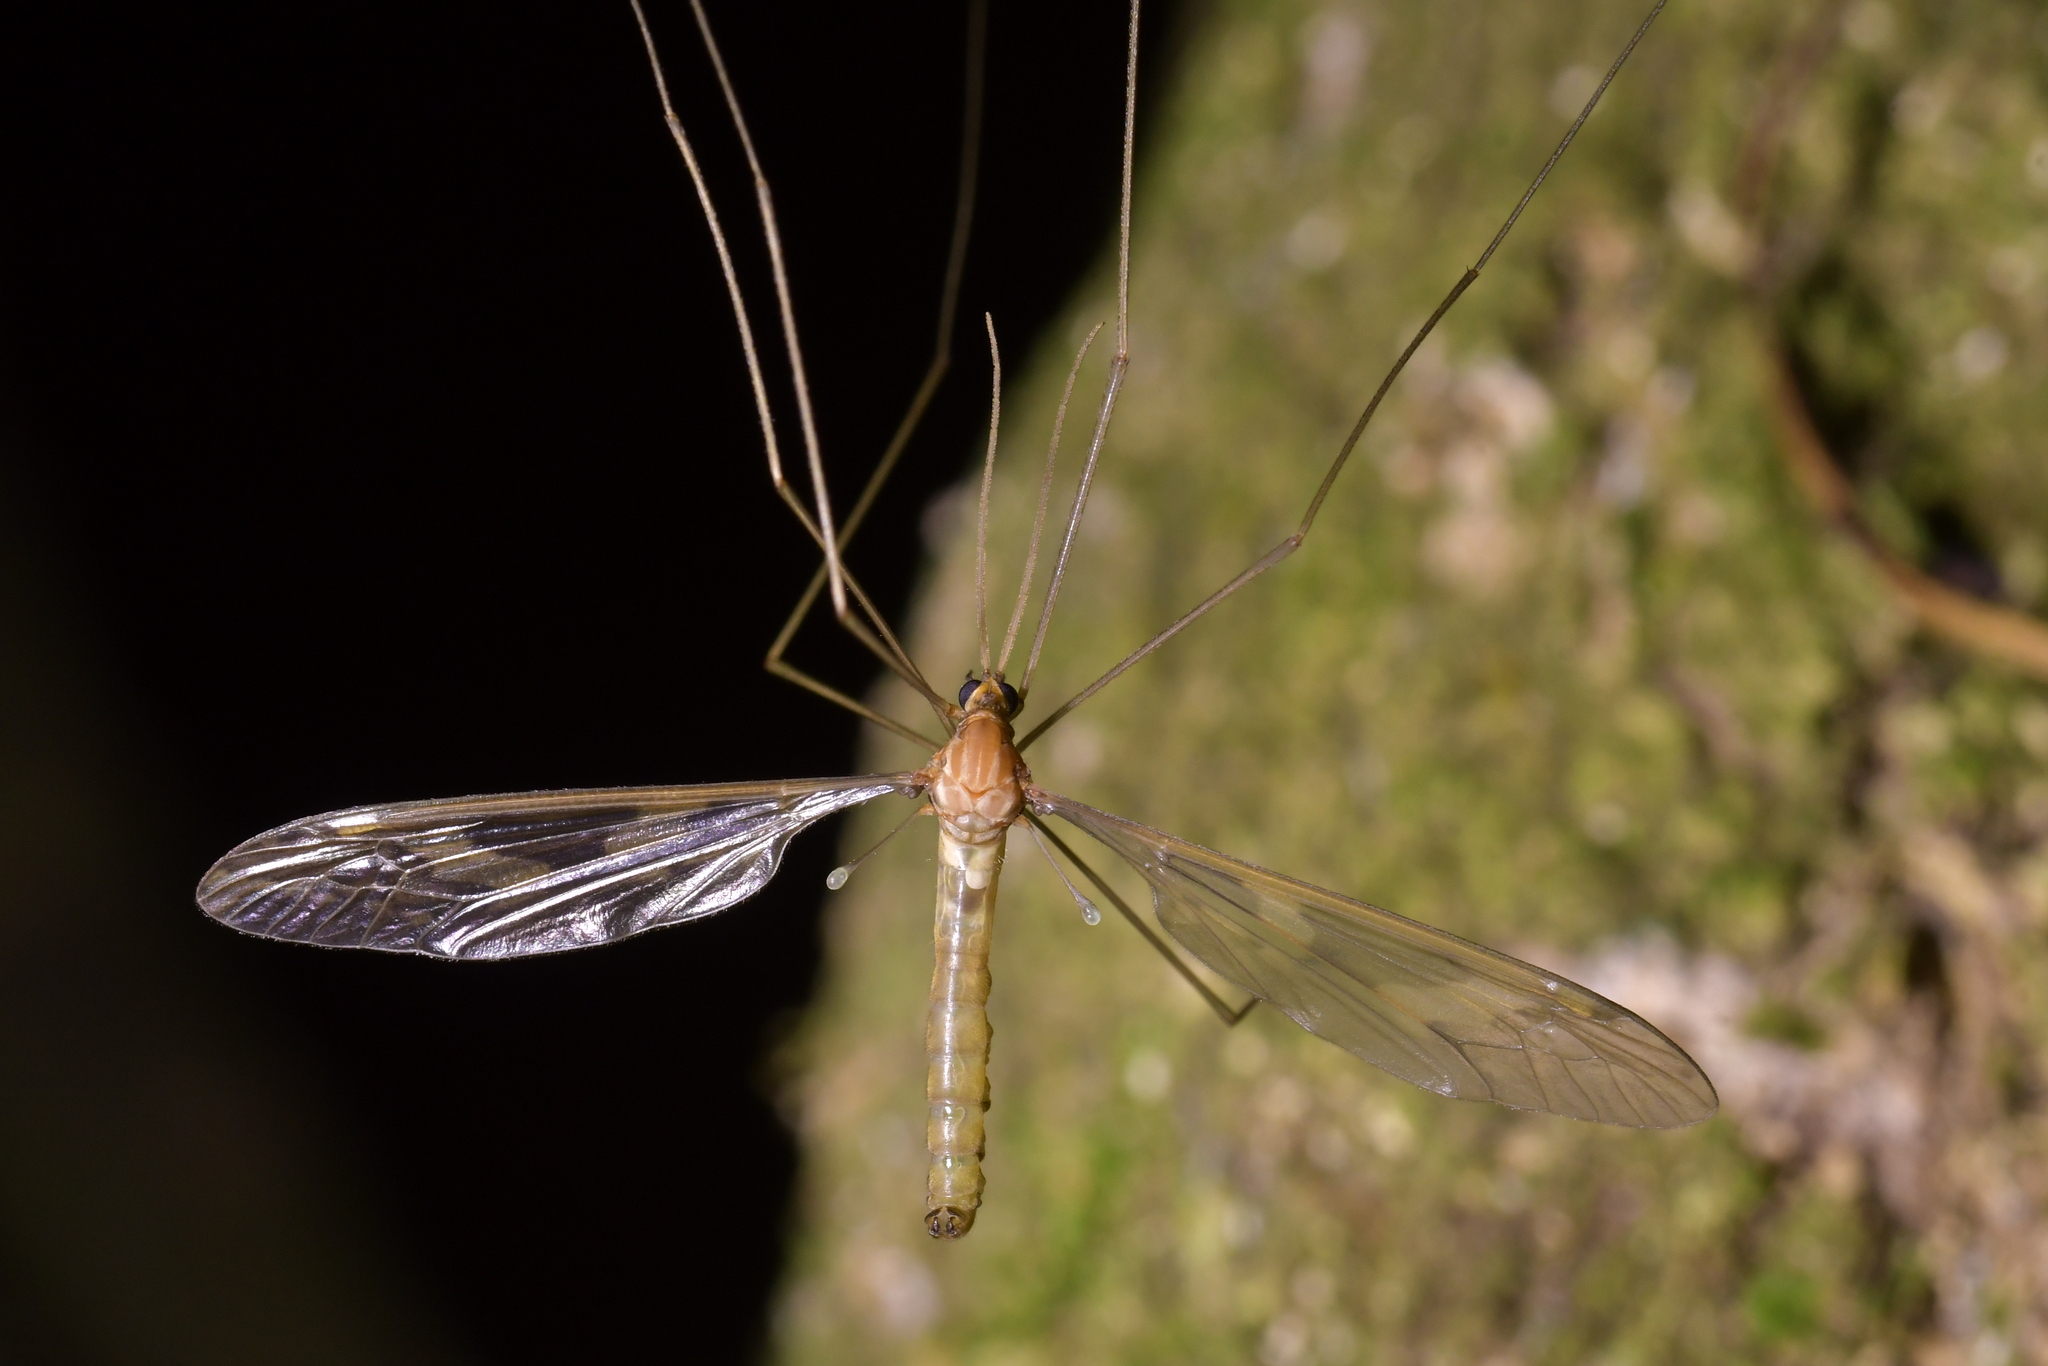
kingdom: Animalia
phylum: Arthropoda
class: Insecta
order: Diptera
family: Tipulidae
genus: Leptotarsus
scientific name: Leptotarsus binotatus
